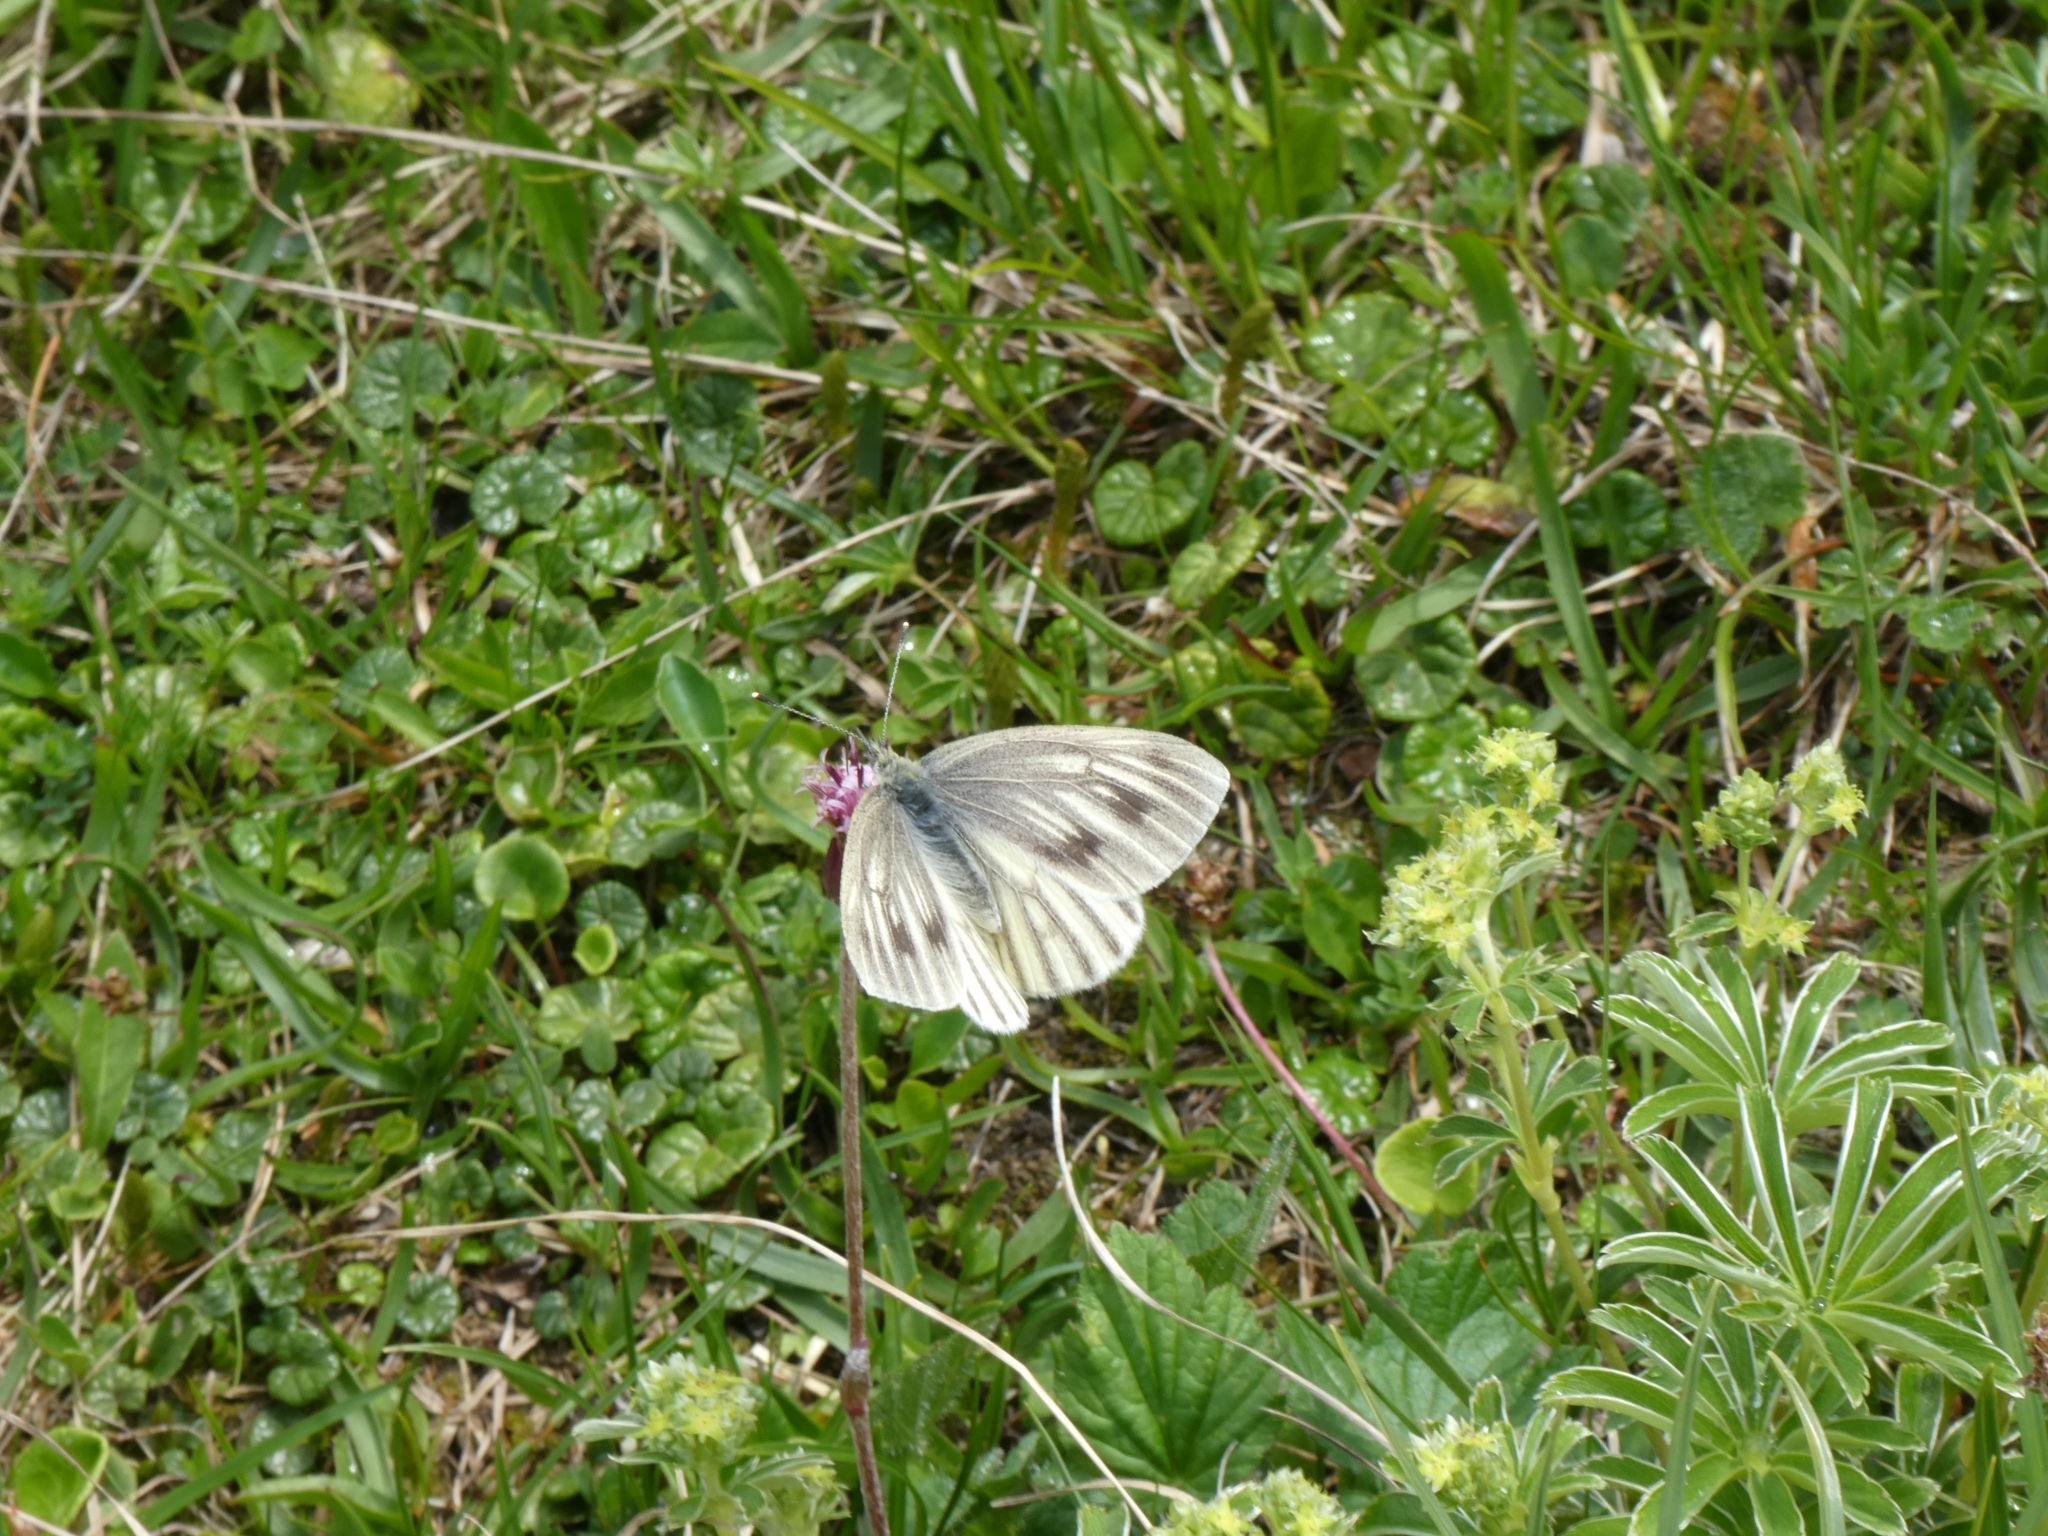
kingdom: Animalia
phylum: Arthropoda
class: Insecta
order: Lepidoptera
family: Pieridae
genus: Pieris
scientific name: Pieris bryoniae
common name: Mountain green-veined white
